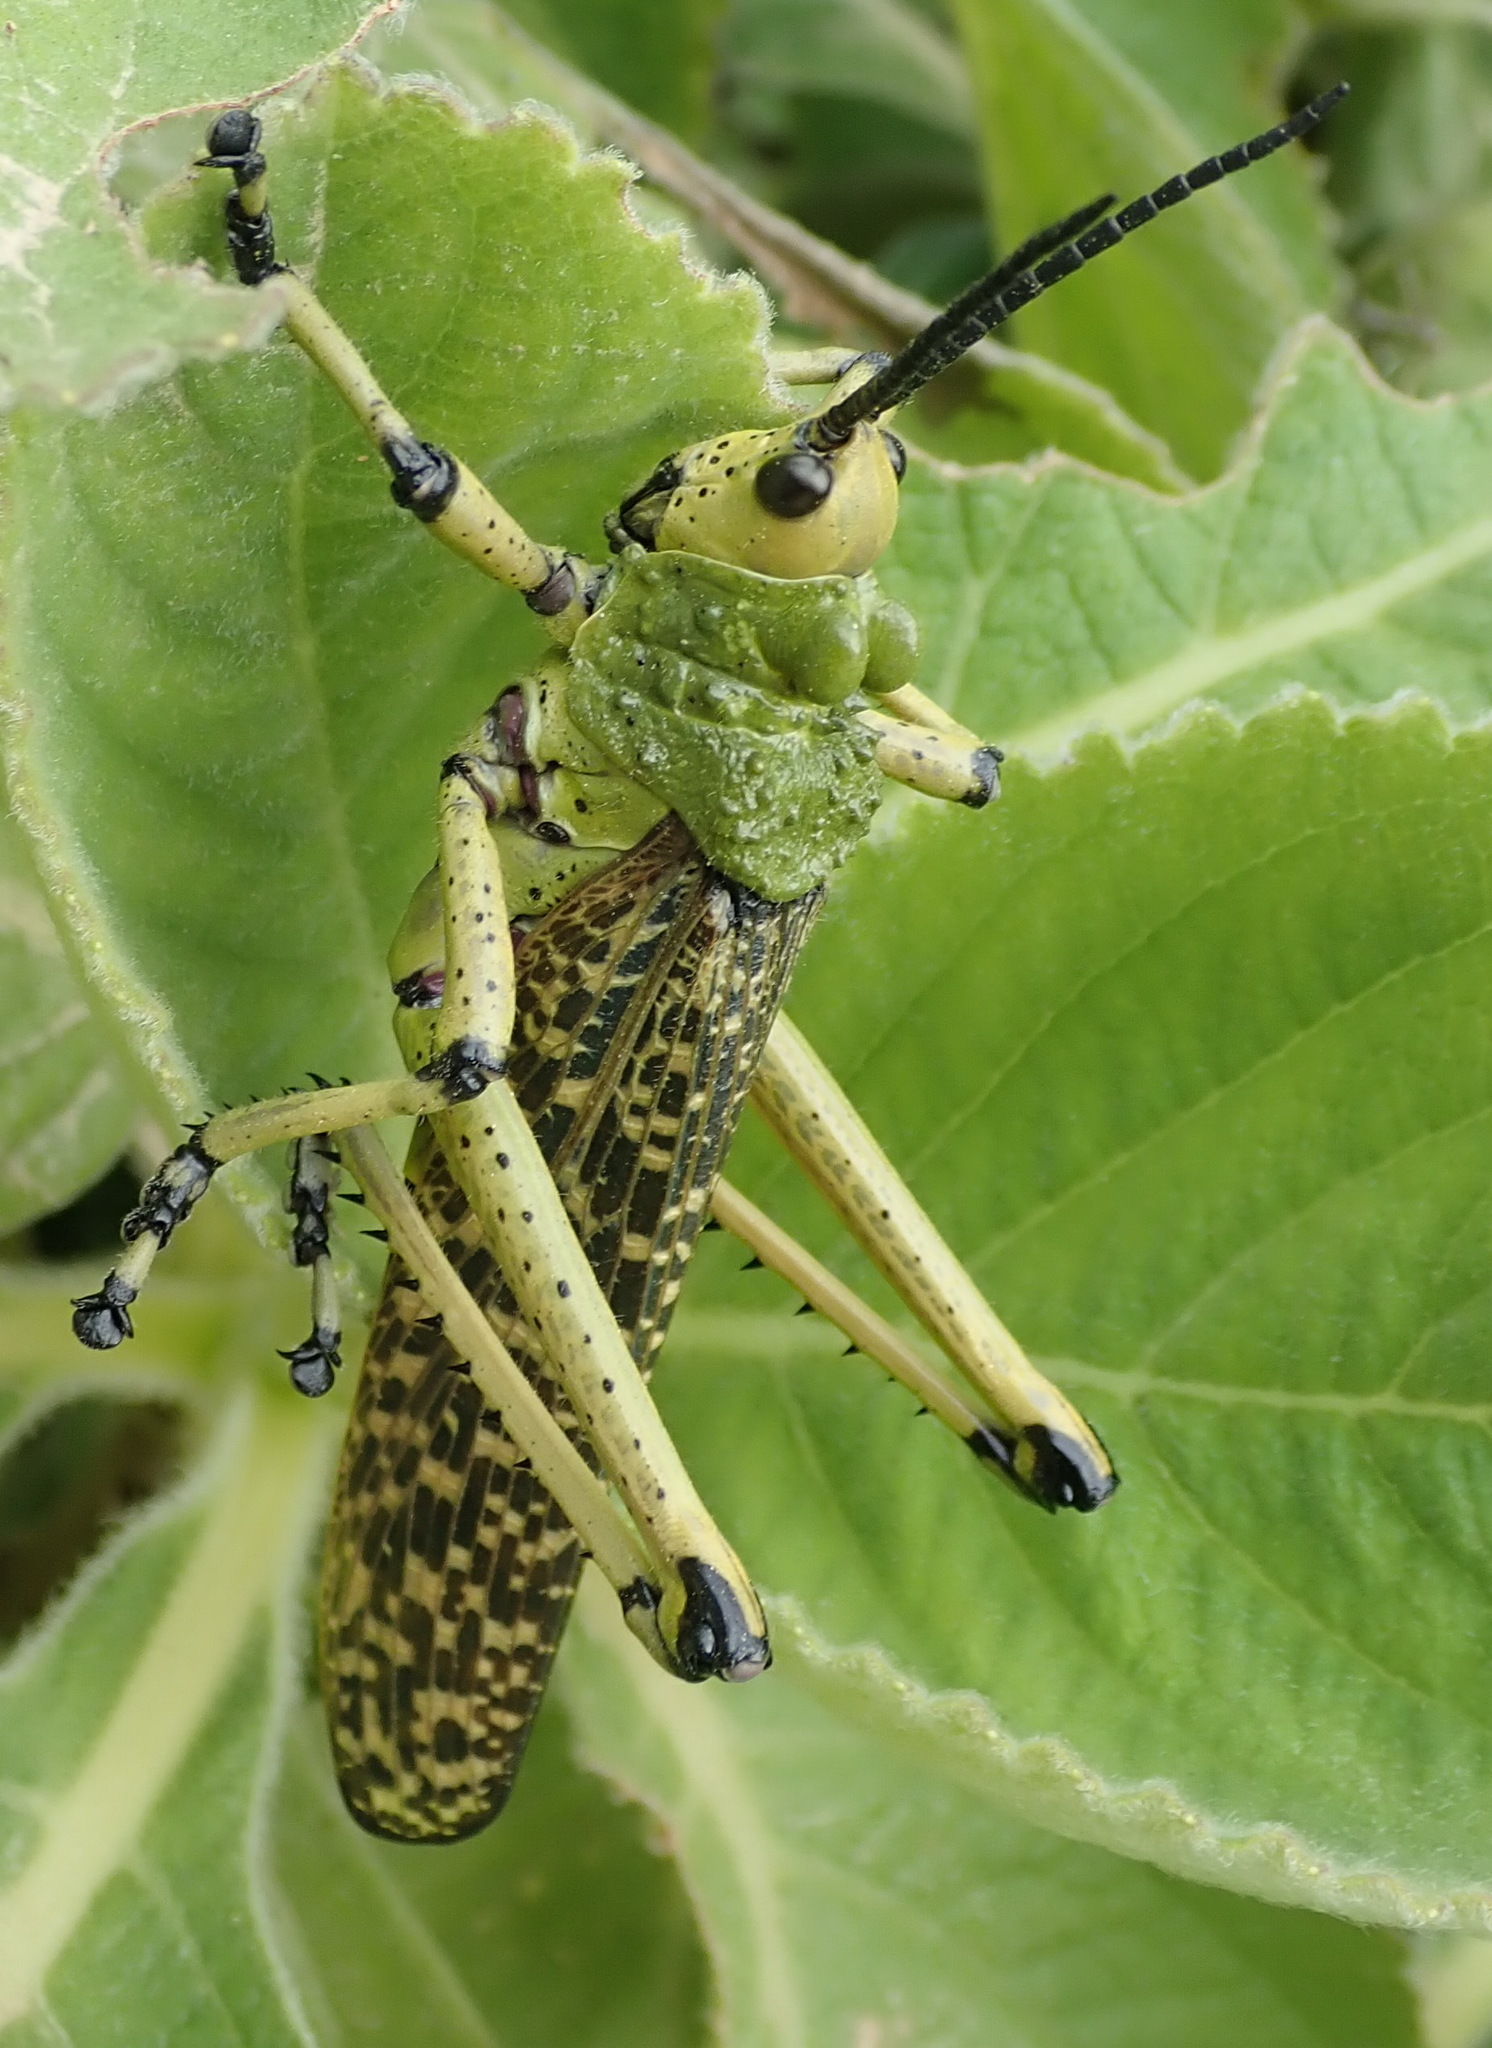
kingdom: Animalia
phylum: Arthropoda
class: Insecta
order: Orthoptera
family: Pyrgomorphidae
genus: Phymateus
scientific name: Phymateus leprosus
